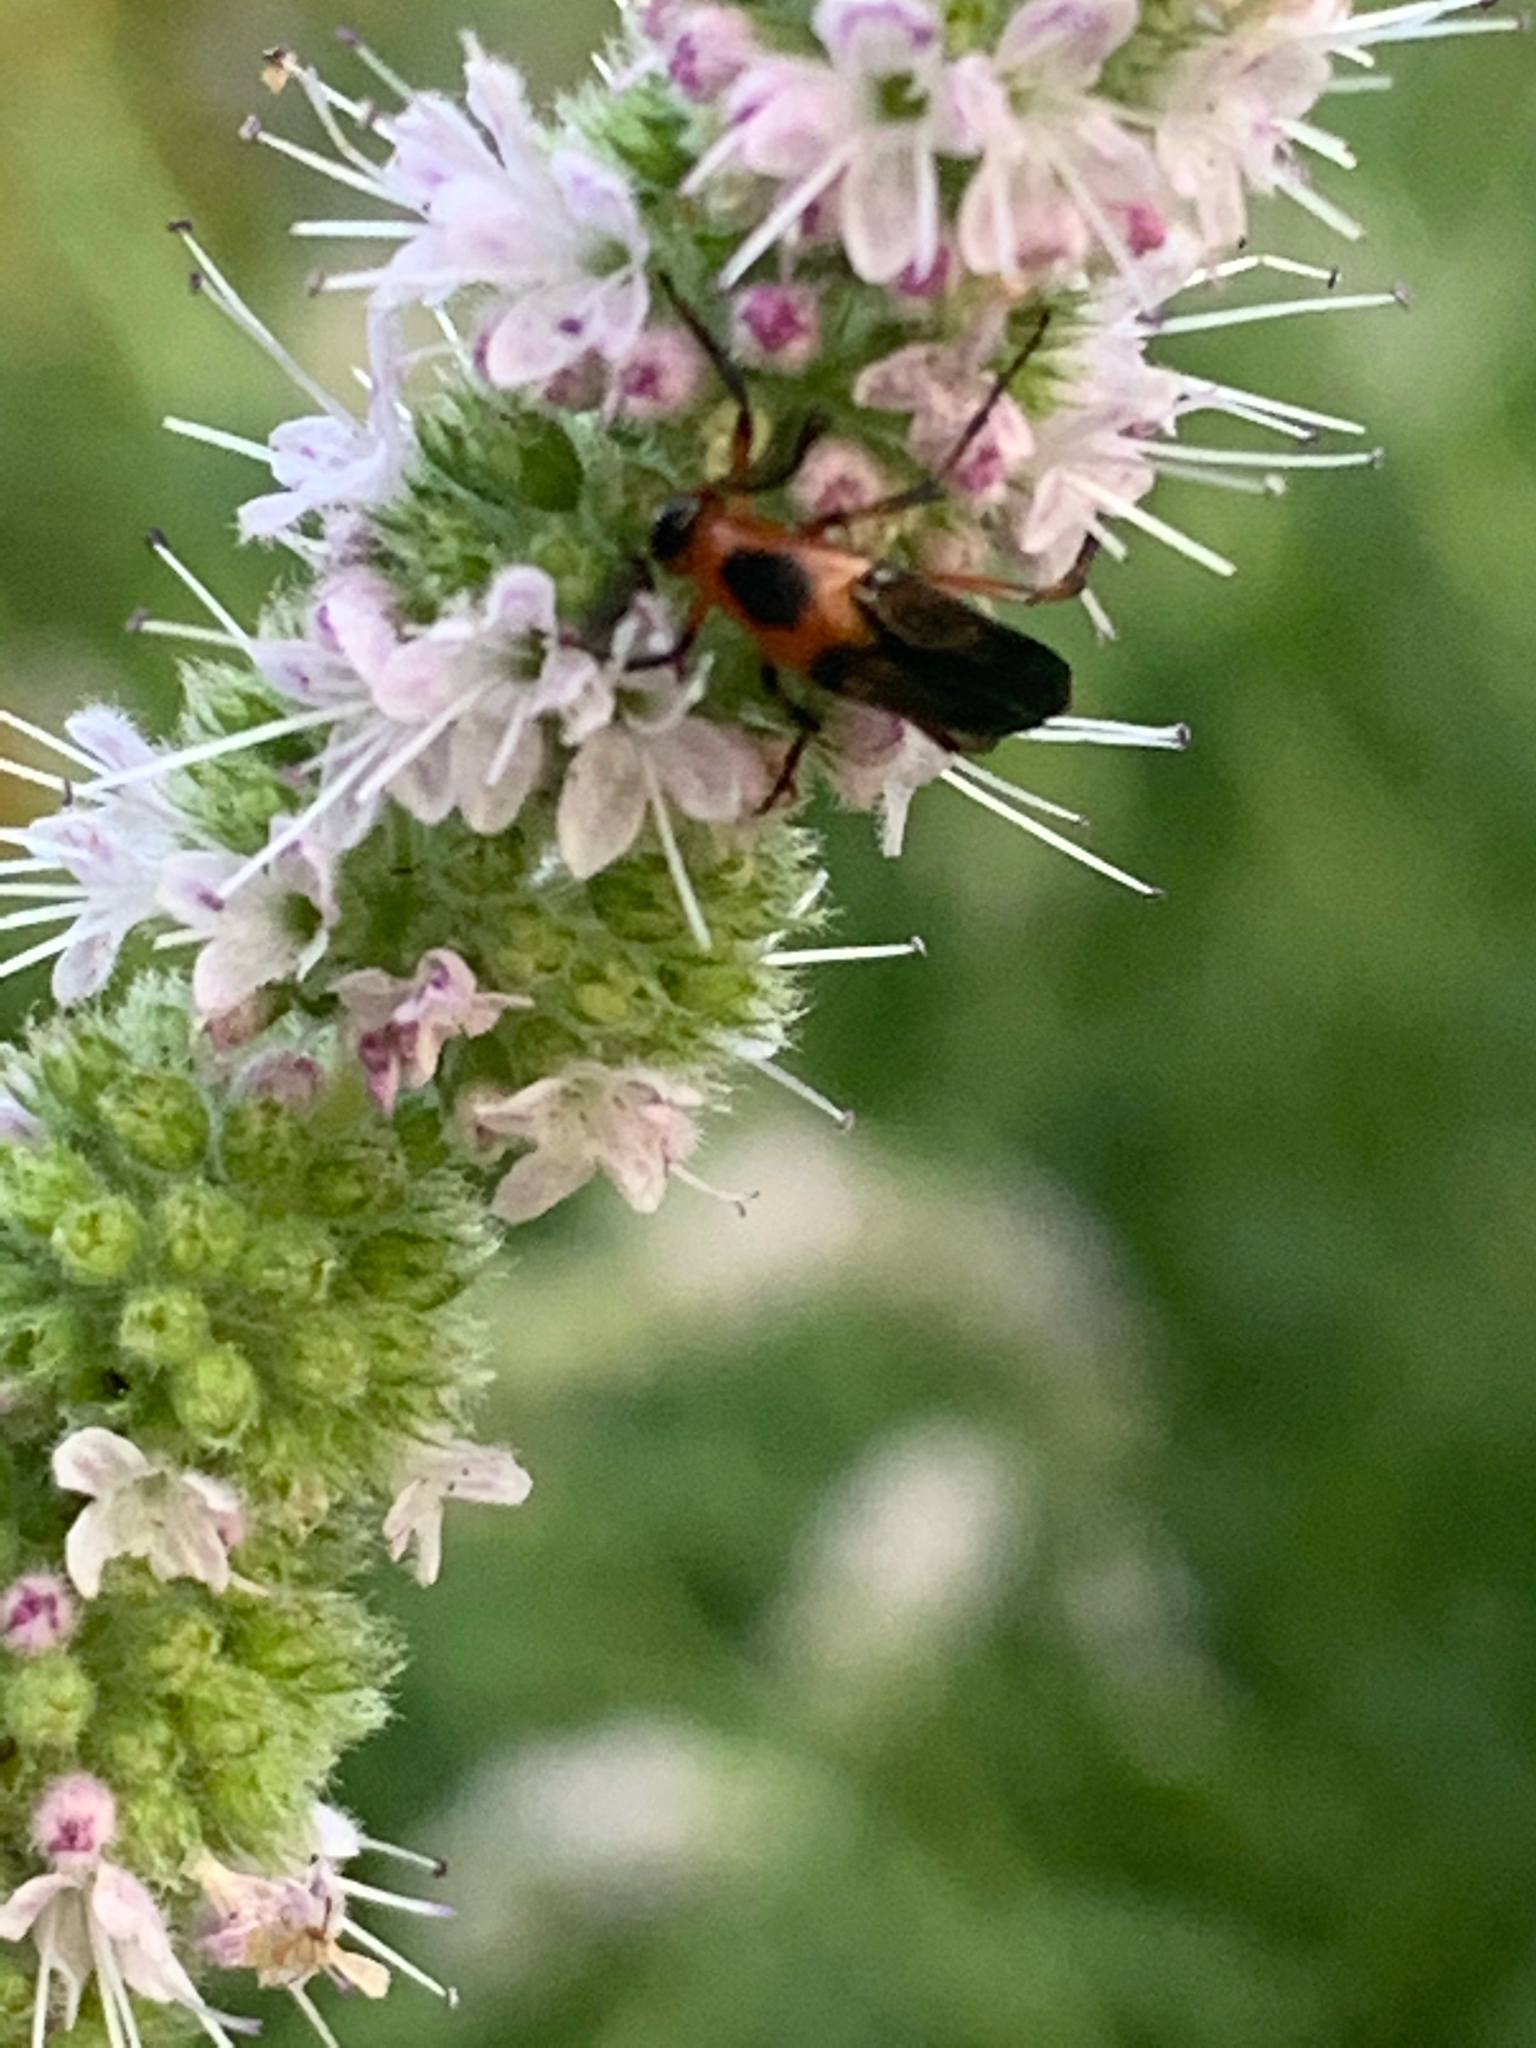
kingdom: Animalia
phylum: Arthropoda
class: Insecta
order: Coleoptera
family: Ripiphoridae
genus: Macrosiagon
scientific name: Macrosiagon limbatum
